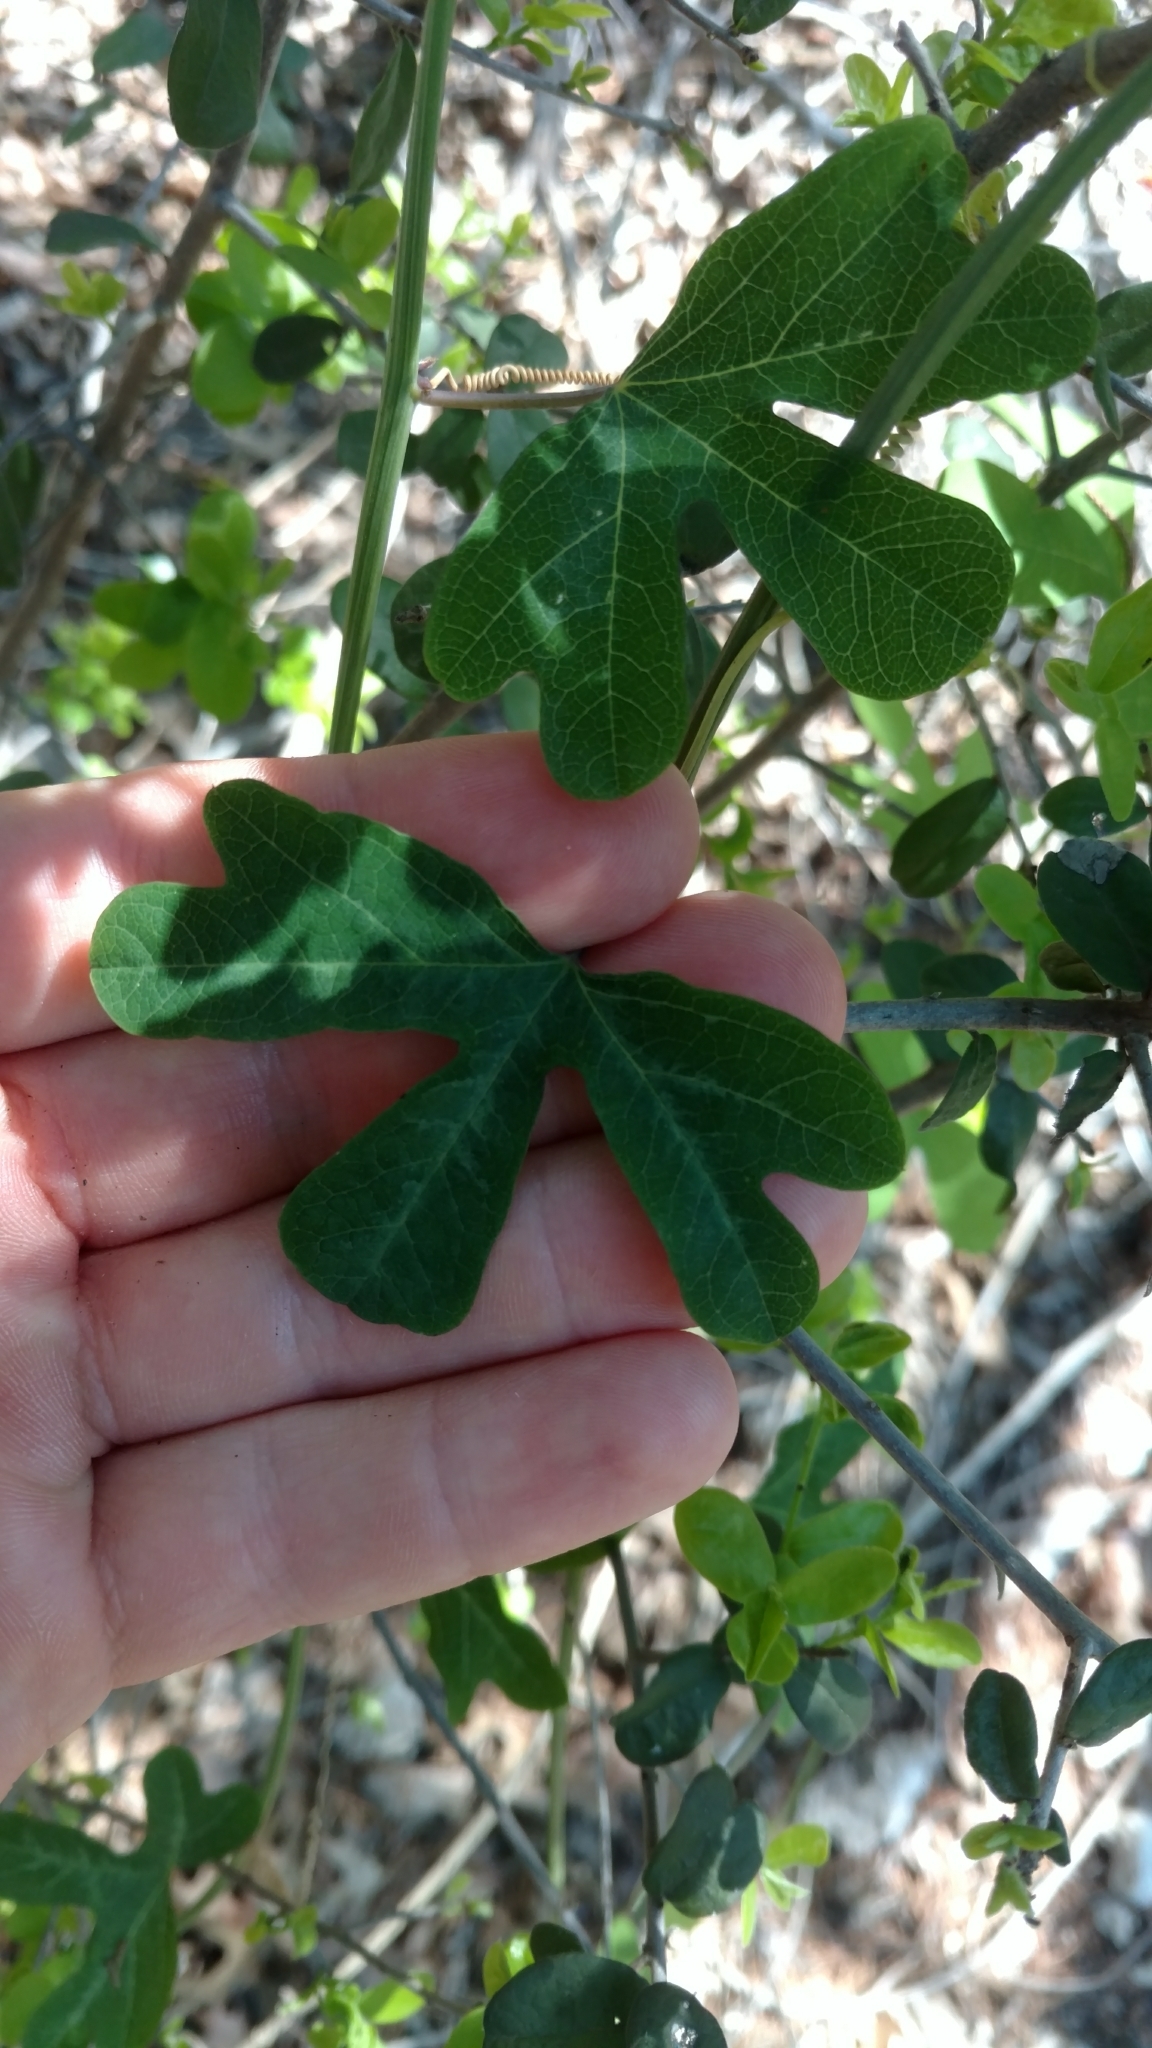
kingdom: Plantae
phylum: Tracheophyta
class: Magnoliopsida
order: Malpighiales
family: Passifloraceae
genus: Passiflora
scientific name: Passiflora affinis
